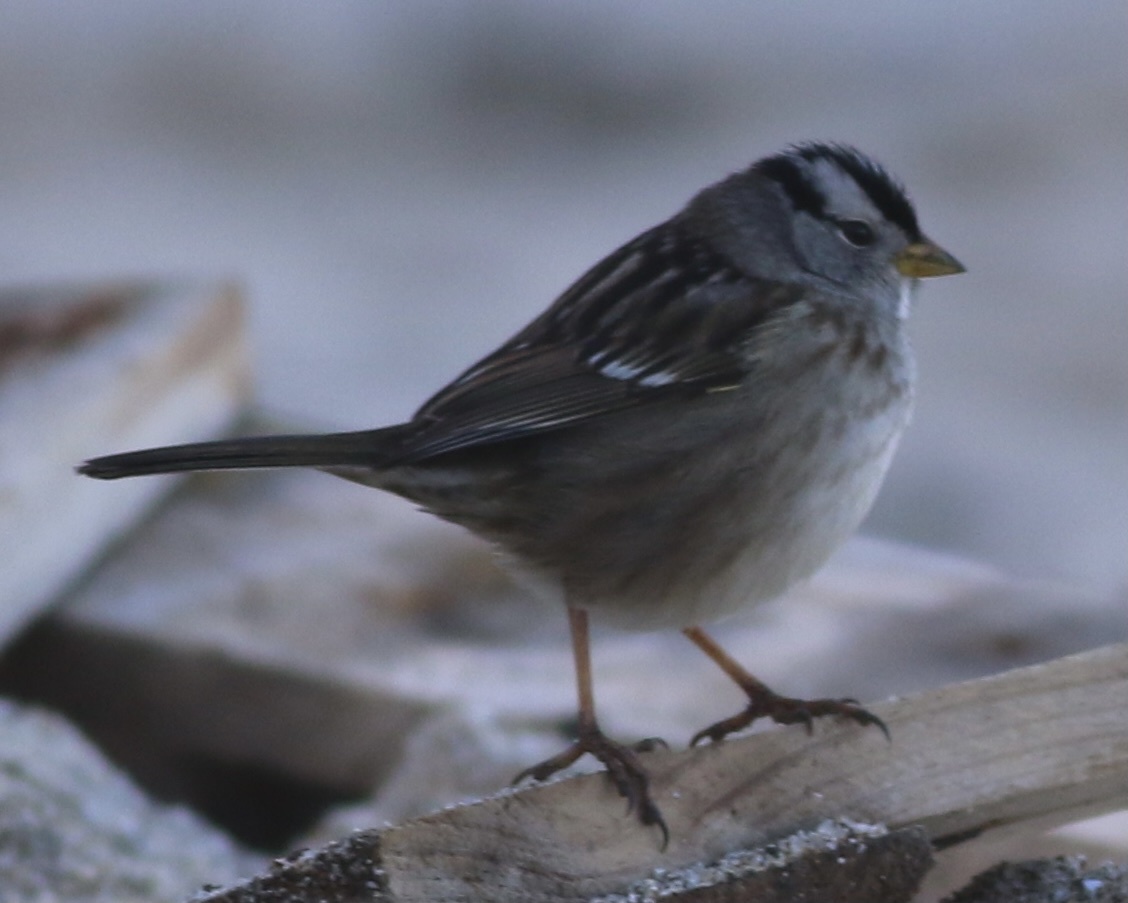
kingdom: Animalia
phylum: Chordata
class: Aves
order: Passeriformes
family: Passerellidae
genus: Zonotrichia
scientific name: Zonotrichia leucophrys
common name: White-crowned sparrow
